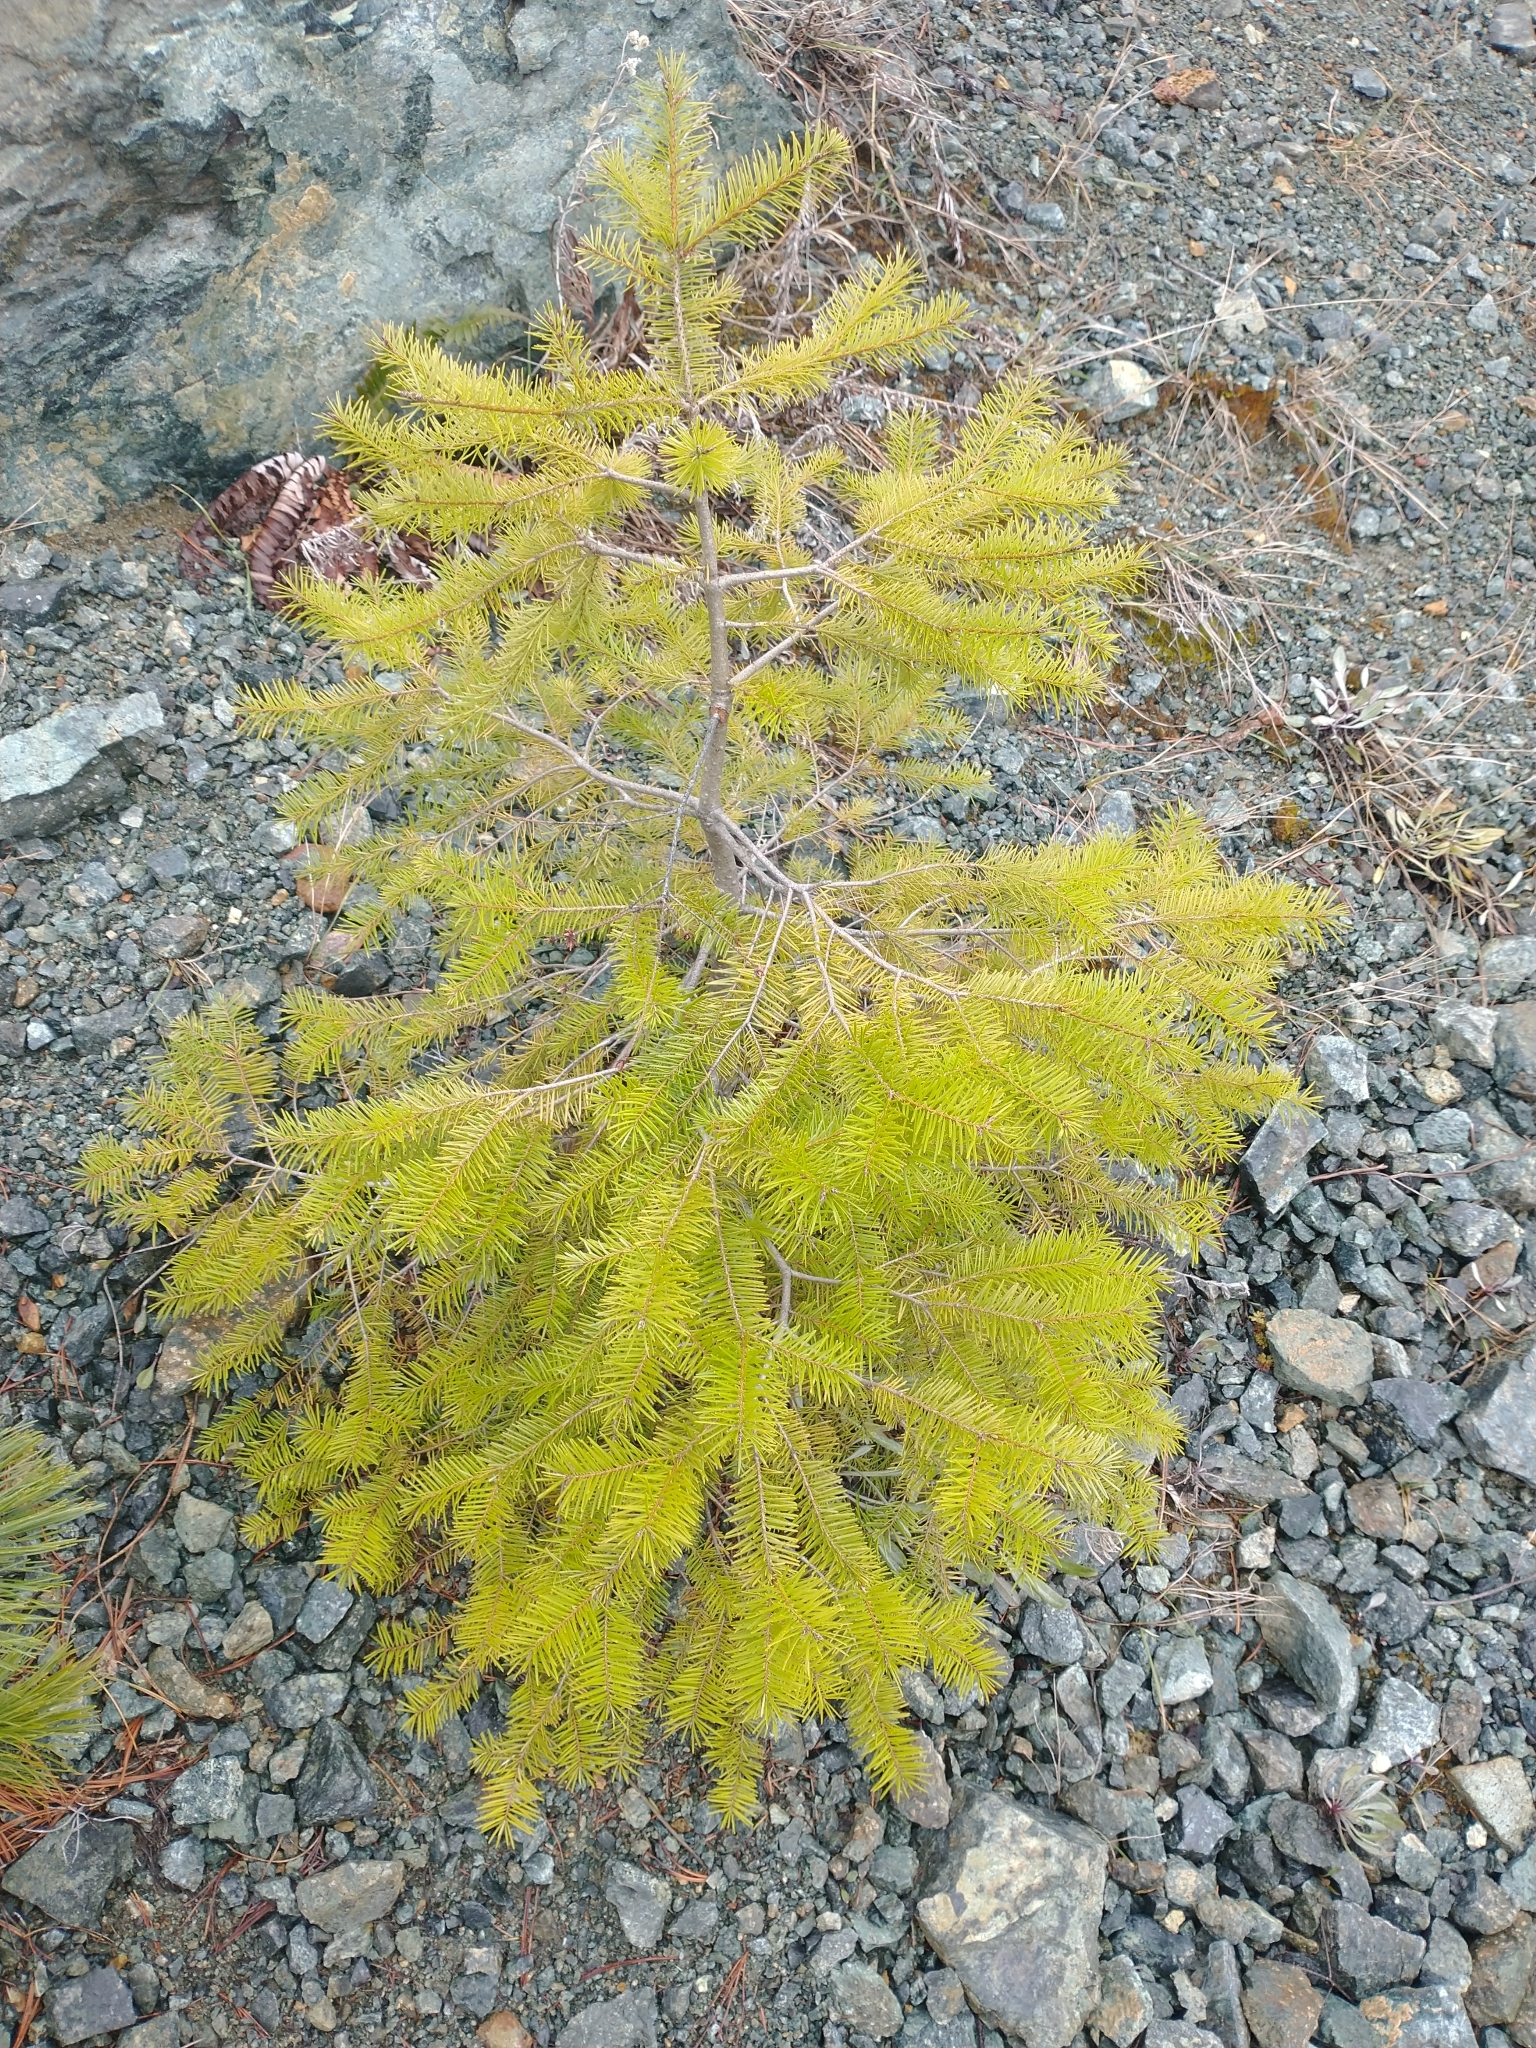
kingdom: Plantae
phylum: Tracheophyta
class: Pinopsida
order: Pinales
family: Pinaceae
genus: Pseudotsuga
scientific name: Pseudotsuga menziesii
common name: Douglas fir
